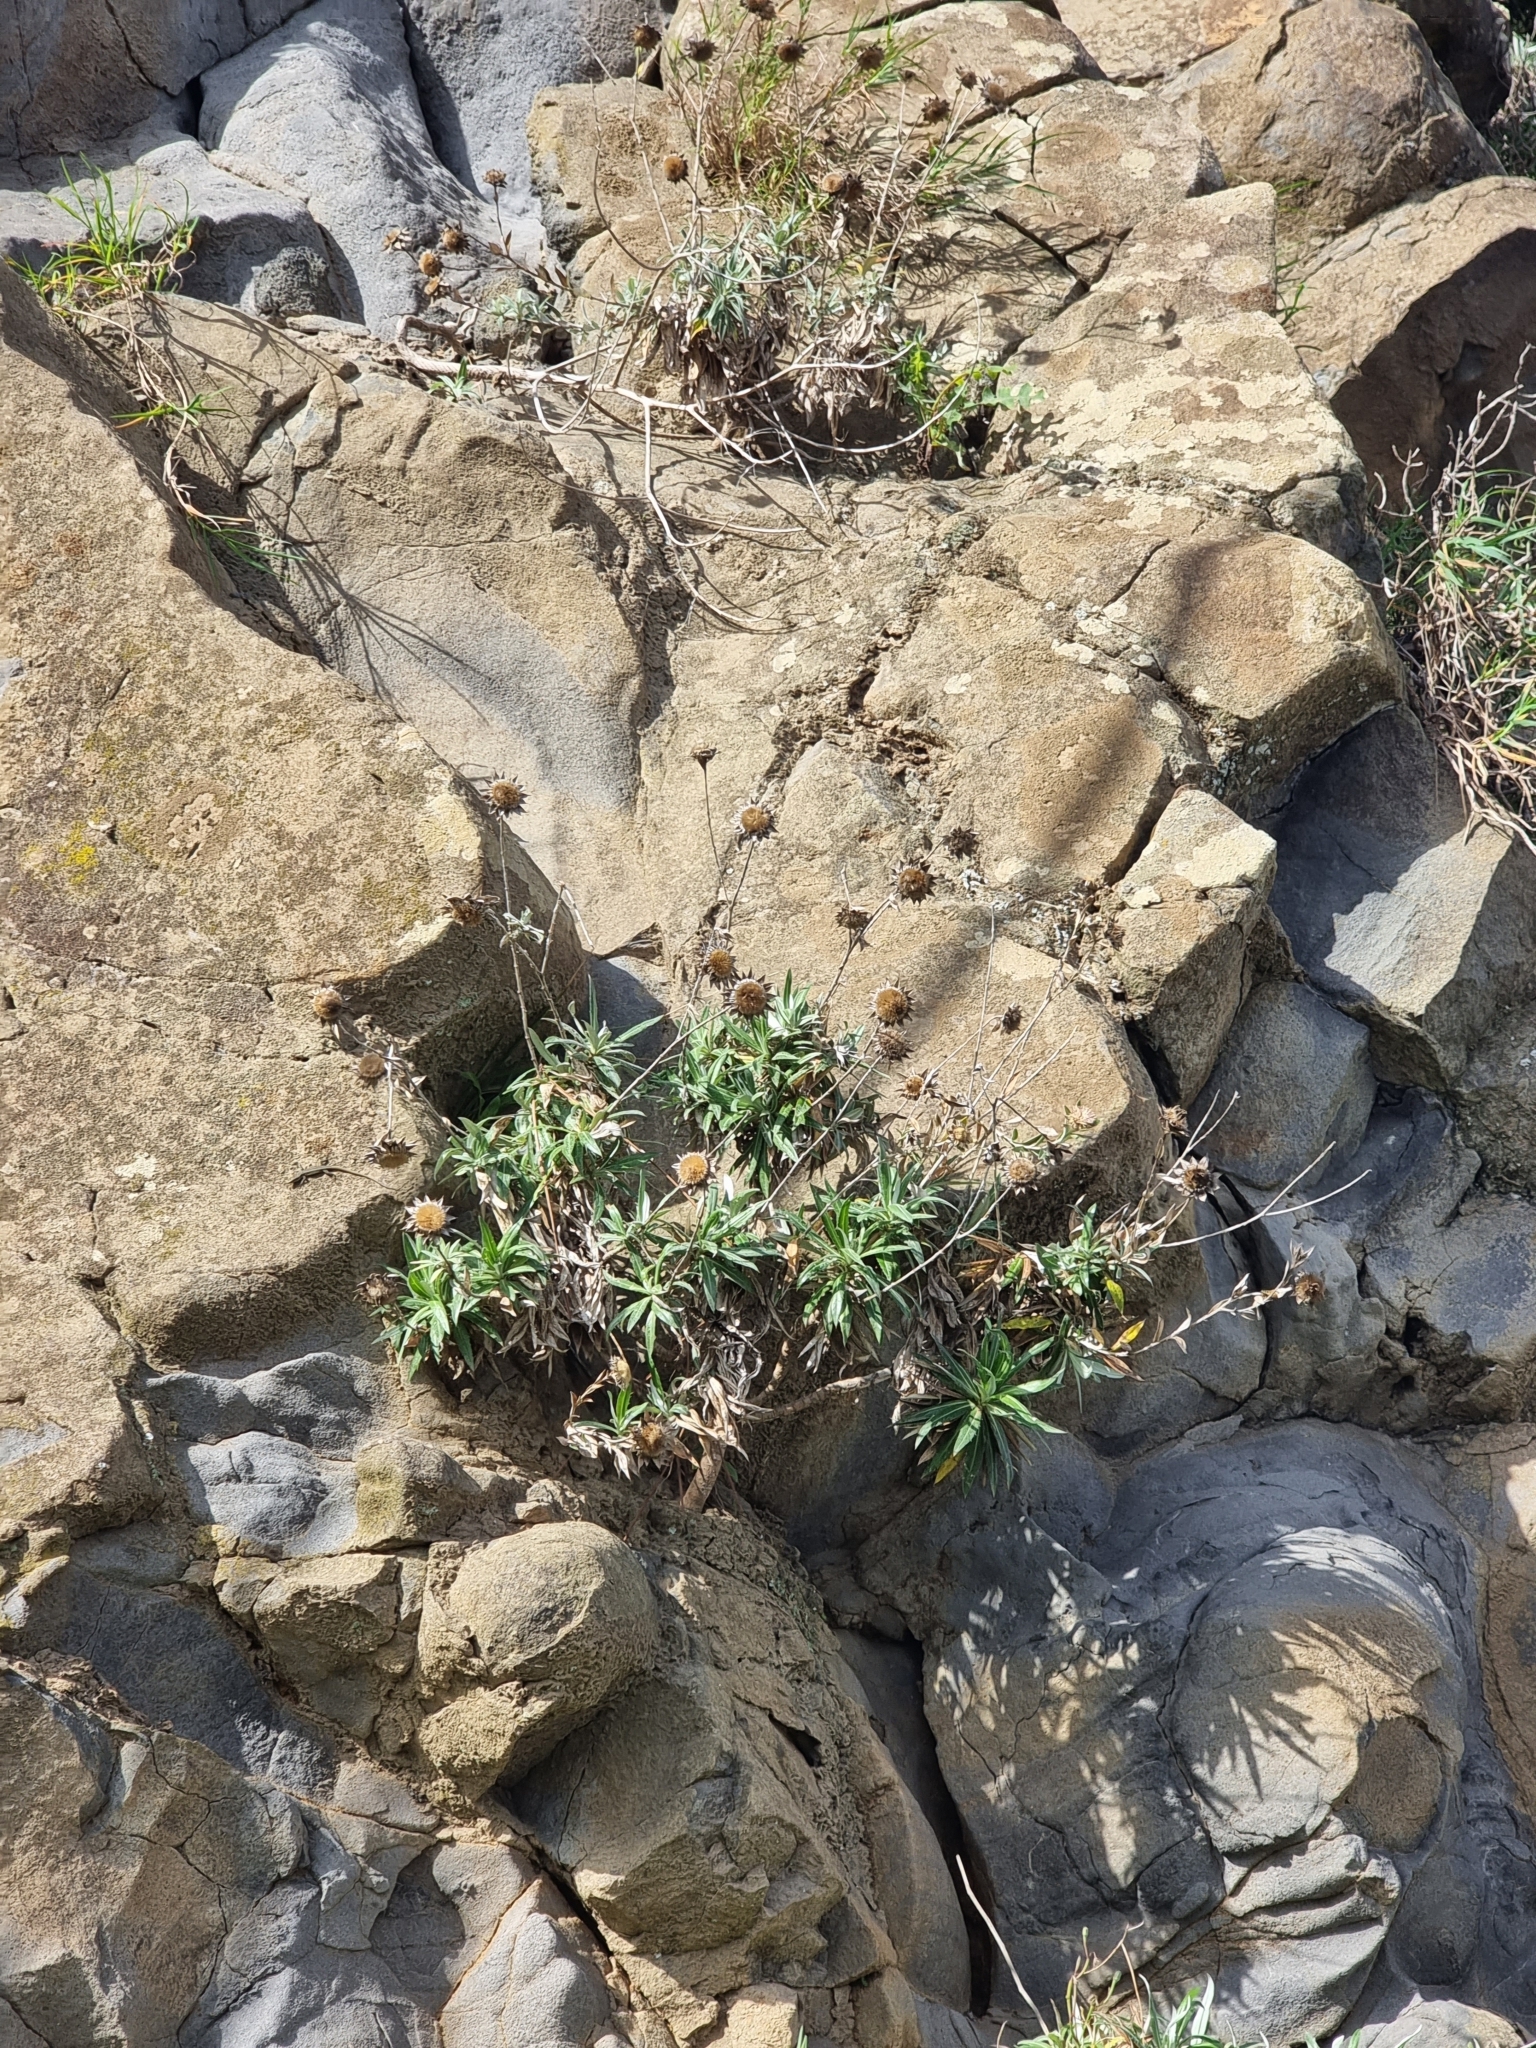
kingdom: Plantae
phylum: Tracheophyta
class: Magnoliopsida
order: Asterales
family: Asteraceae
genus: Carlina
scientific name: Carlina salicifolia
